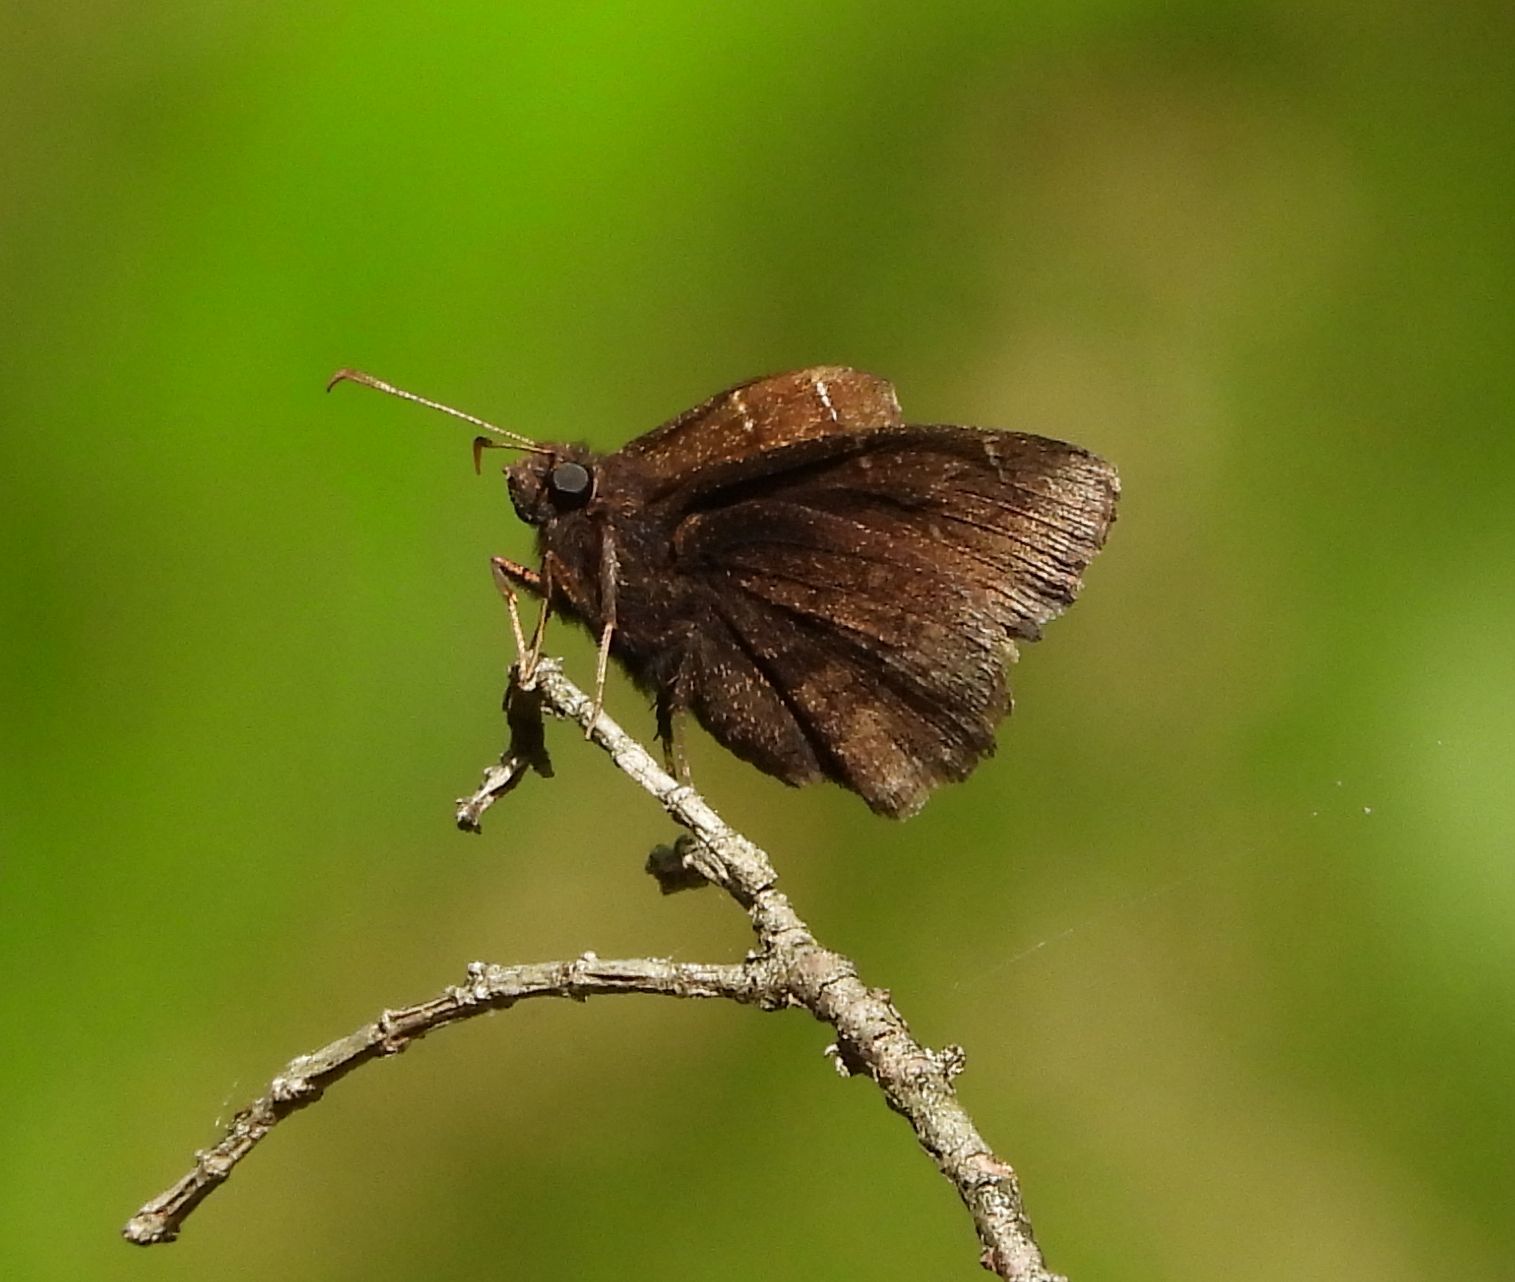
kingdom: Animalia
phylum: Arthropoda
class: Insecta
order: Lepidoptera
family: Hesperiidae
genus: Thorybes
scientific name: Thorybes pylades
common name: Northern cloudywing
